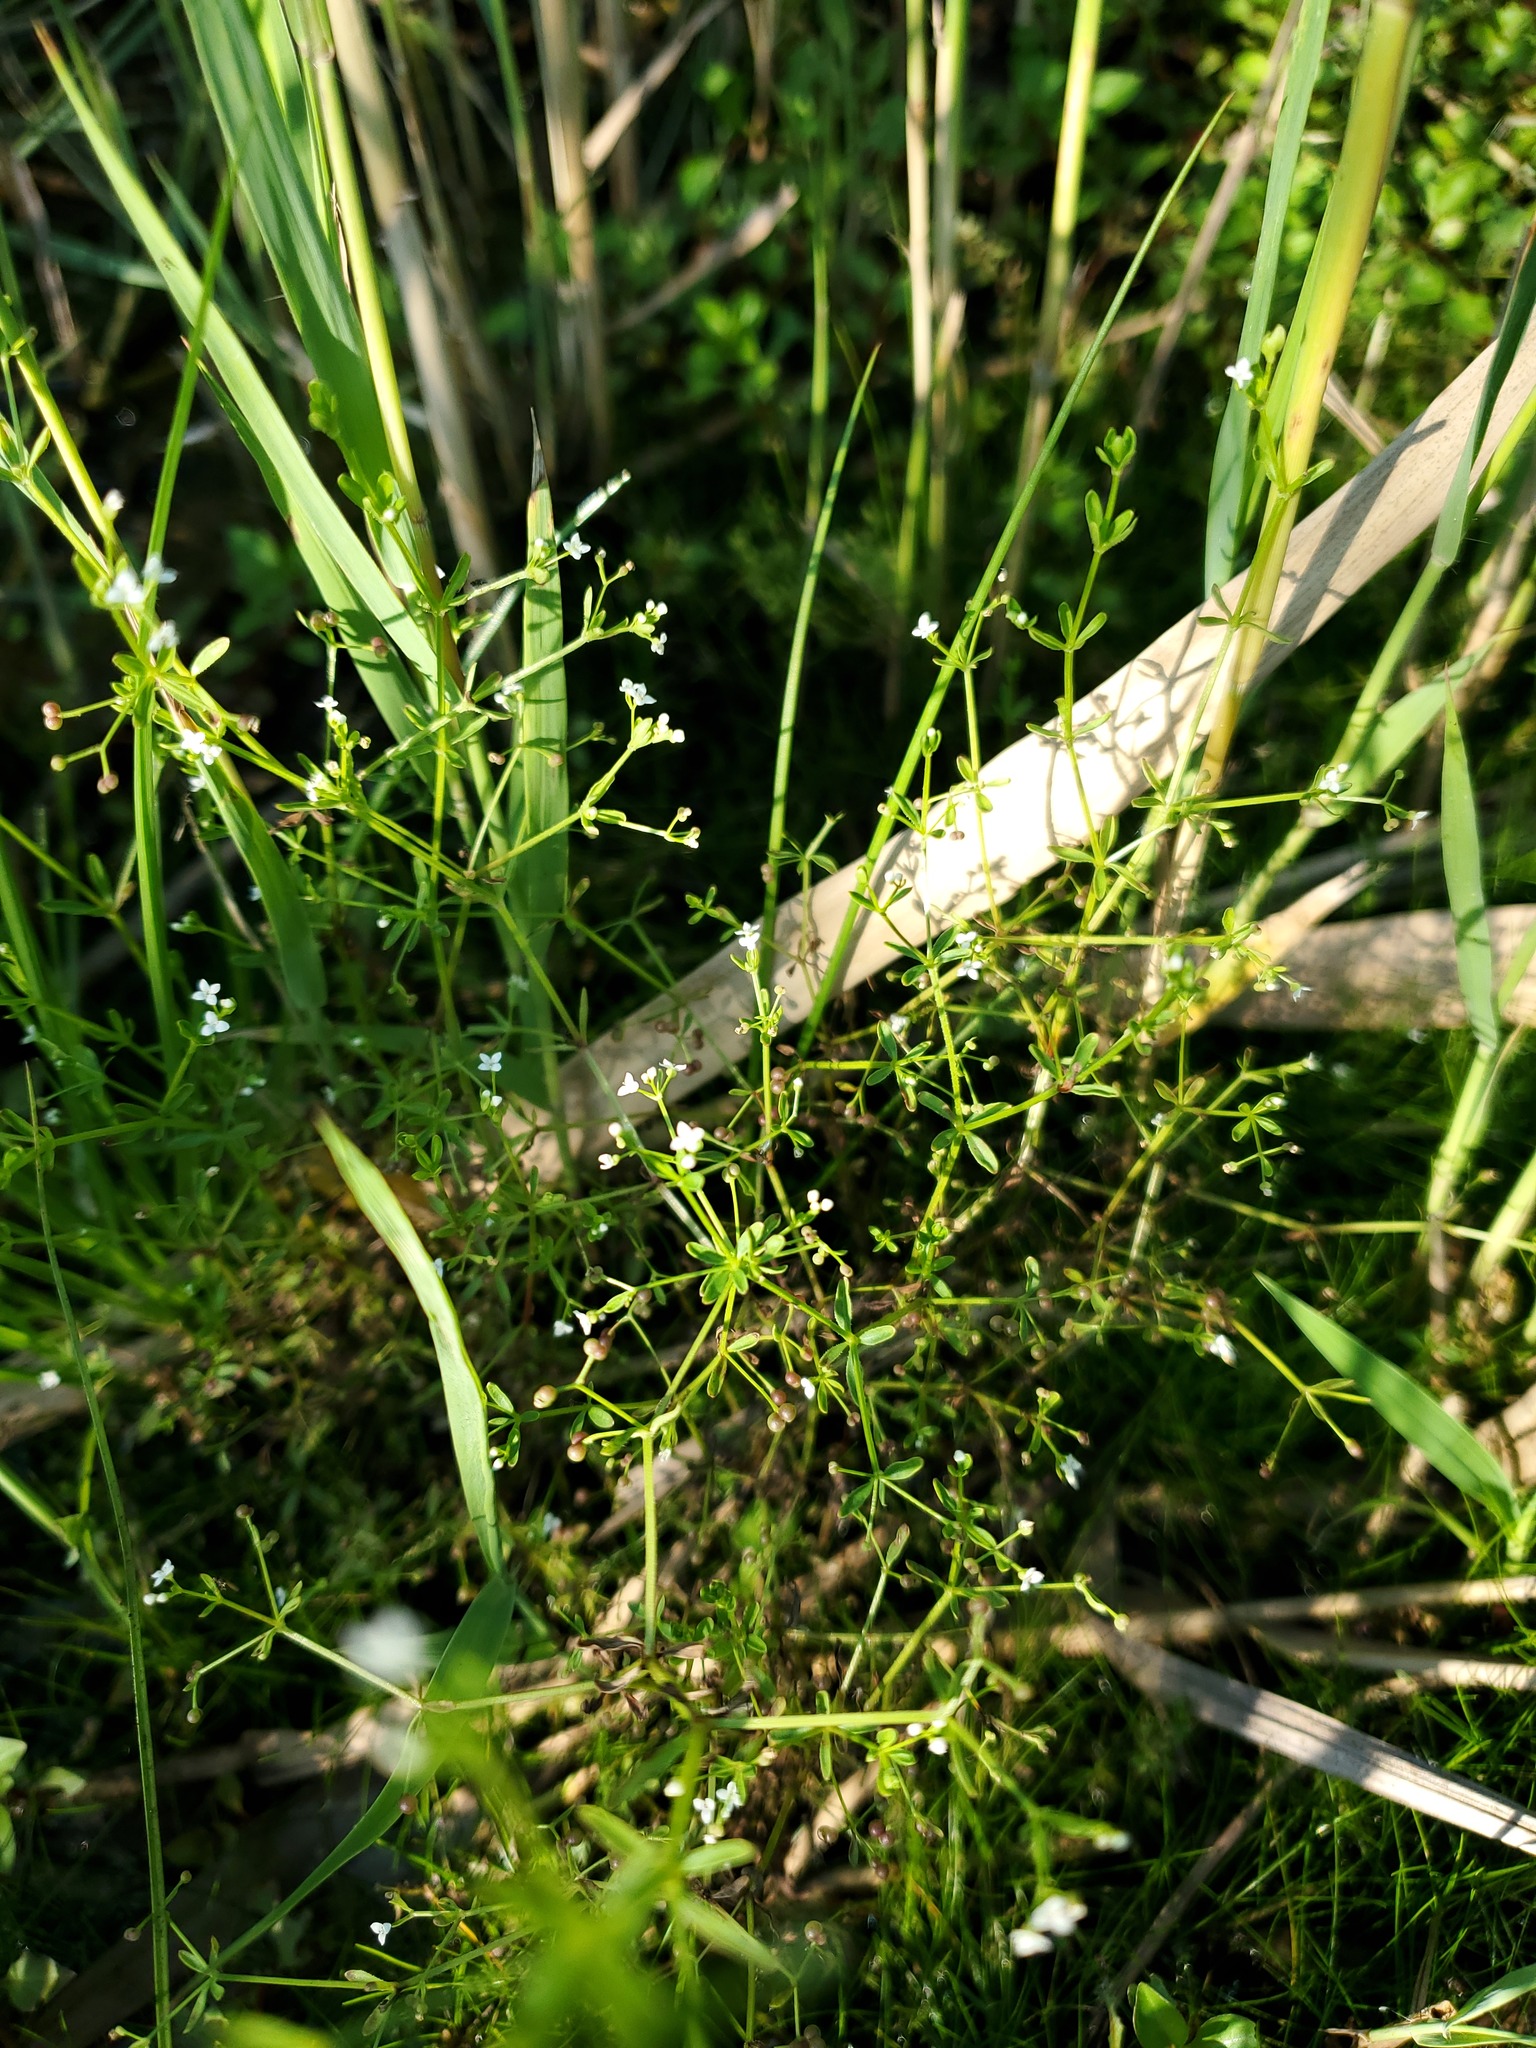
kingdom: Plantae
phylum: Tracheophyta
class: Magnoliopsida
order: Gentianales
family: Rubiaceae
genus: Galium
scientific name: Galium tinctorium
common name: Bedstraw
